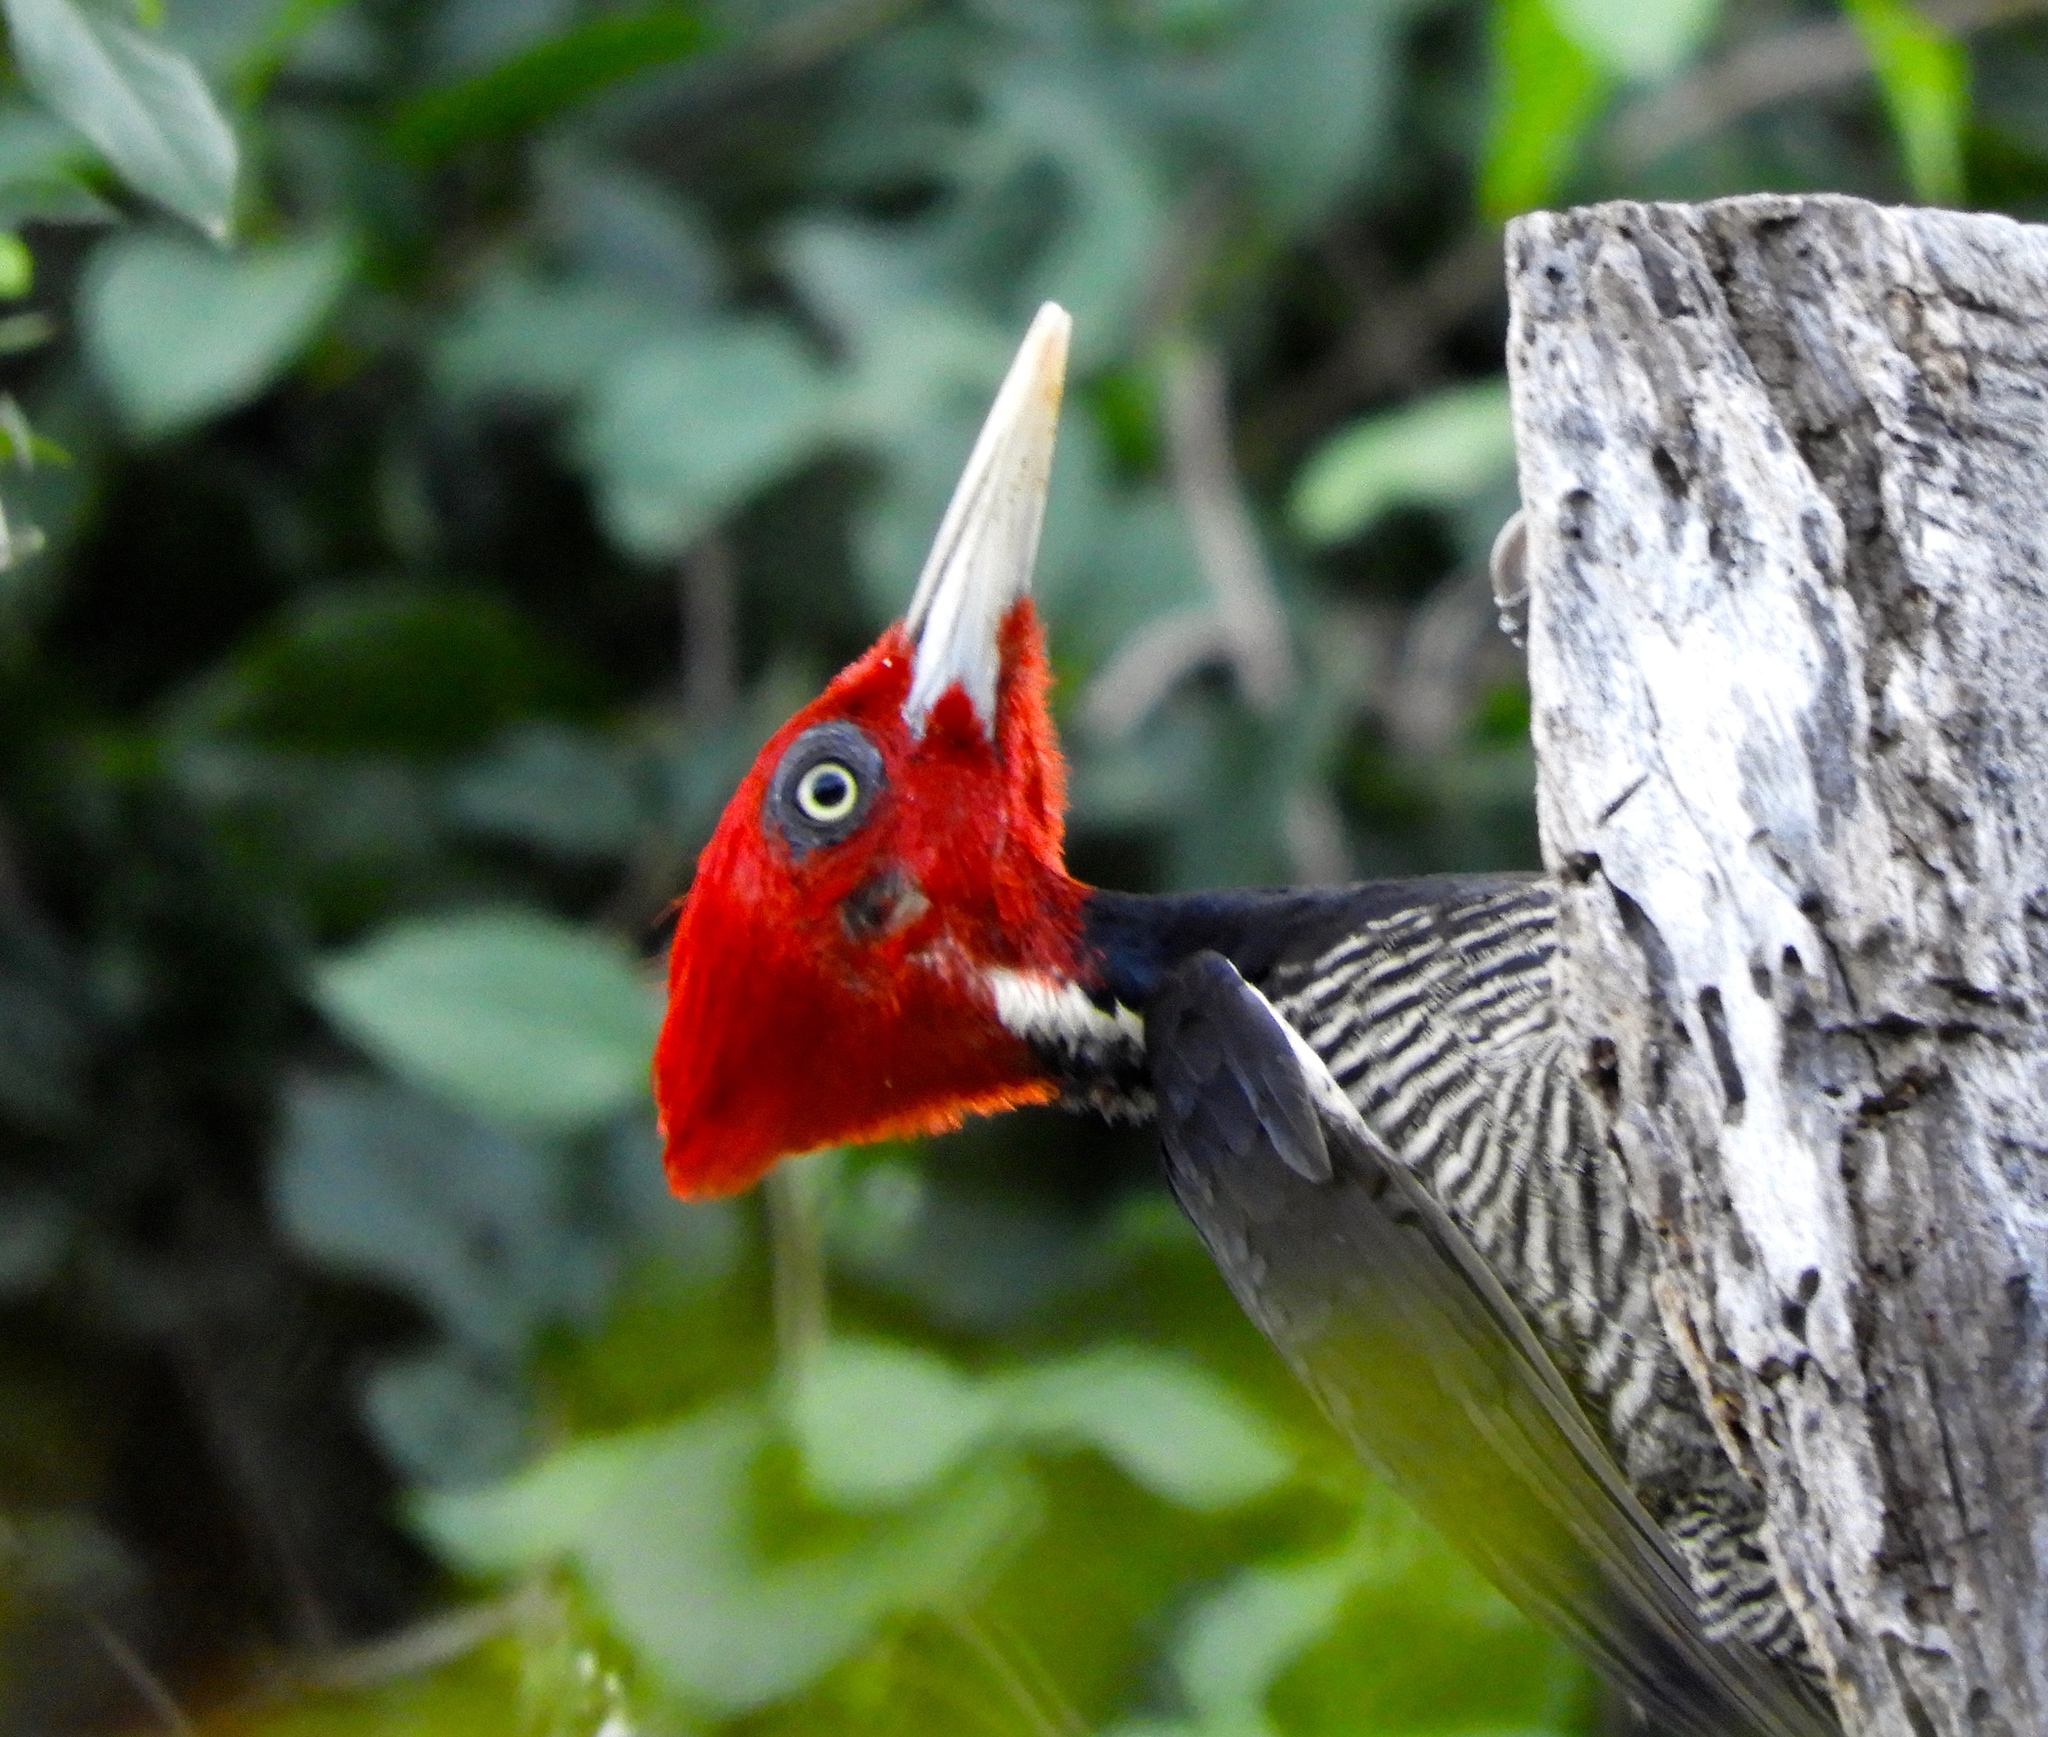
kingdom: Animalia
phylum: Chordata
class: Aves
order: Piciformes
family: Picidae
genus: Campephilus
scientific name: Campephilus guatemalensis
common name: Pale-billed woodpecker
